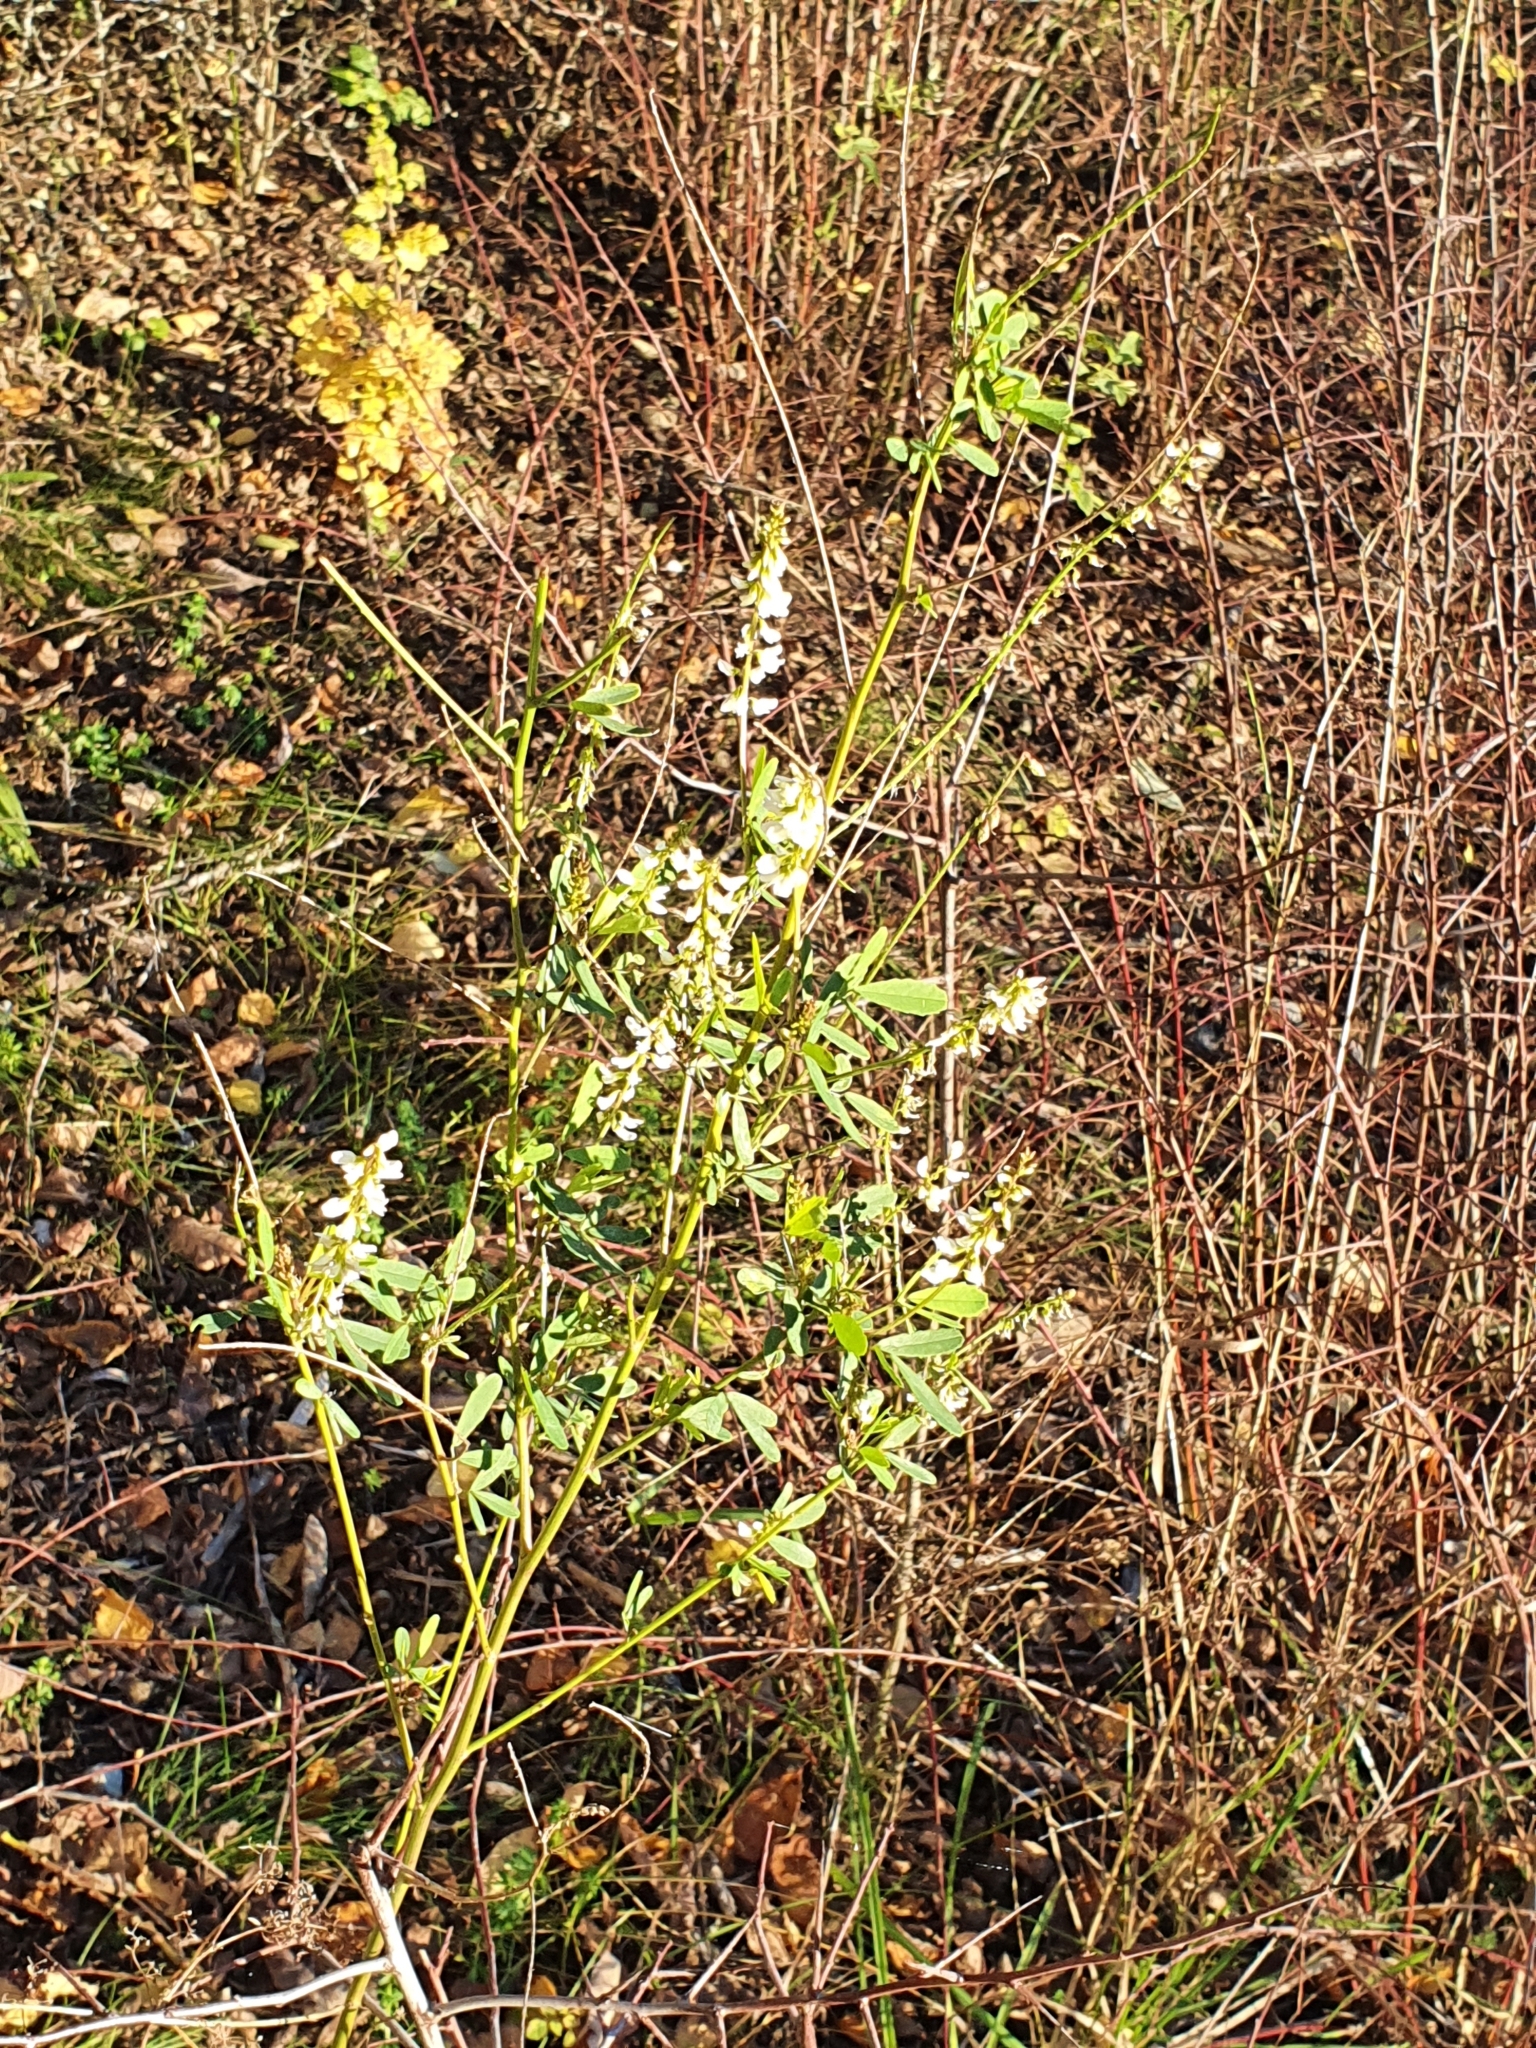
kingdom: Plantae
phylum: Tracheophyta
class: Magnoliopsida
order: Fabales
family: Fabaceae
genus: Melilotus
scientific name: Melilotus albus
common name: White melilot
